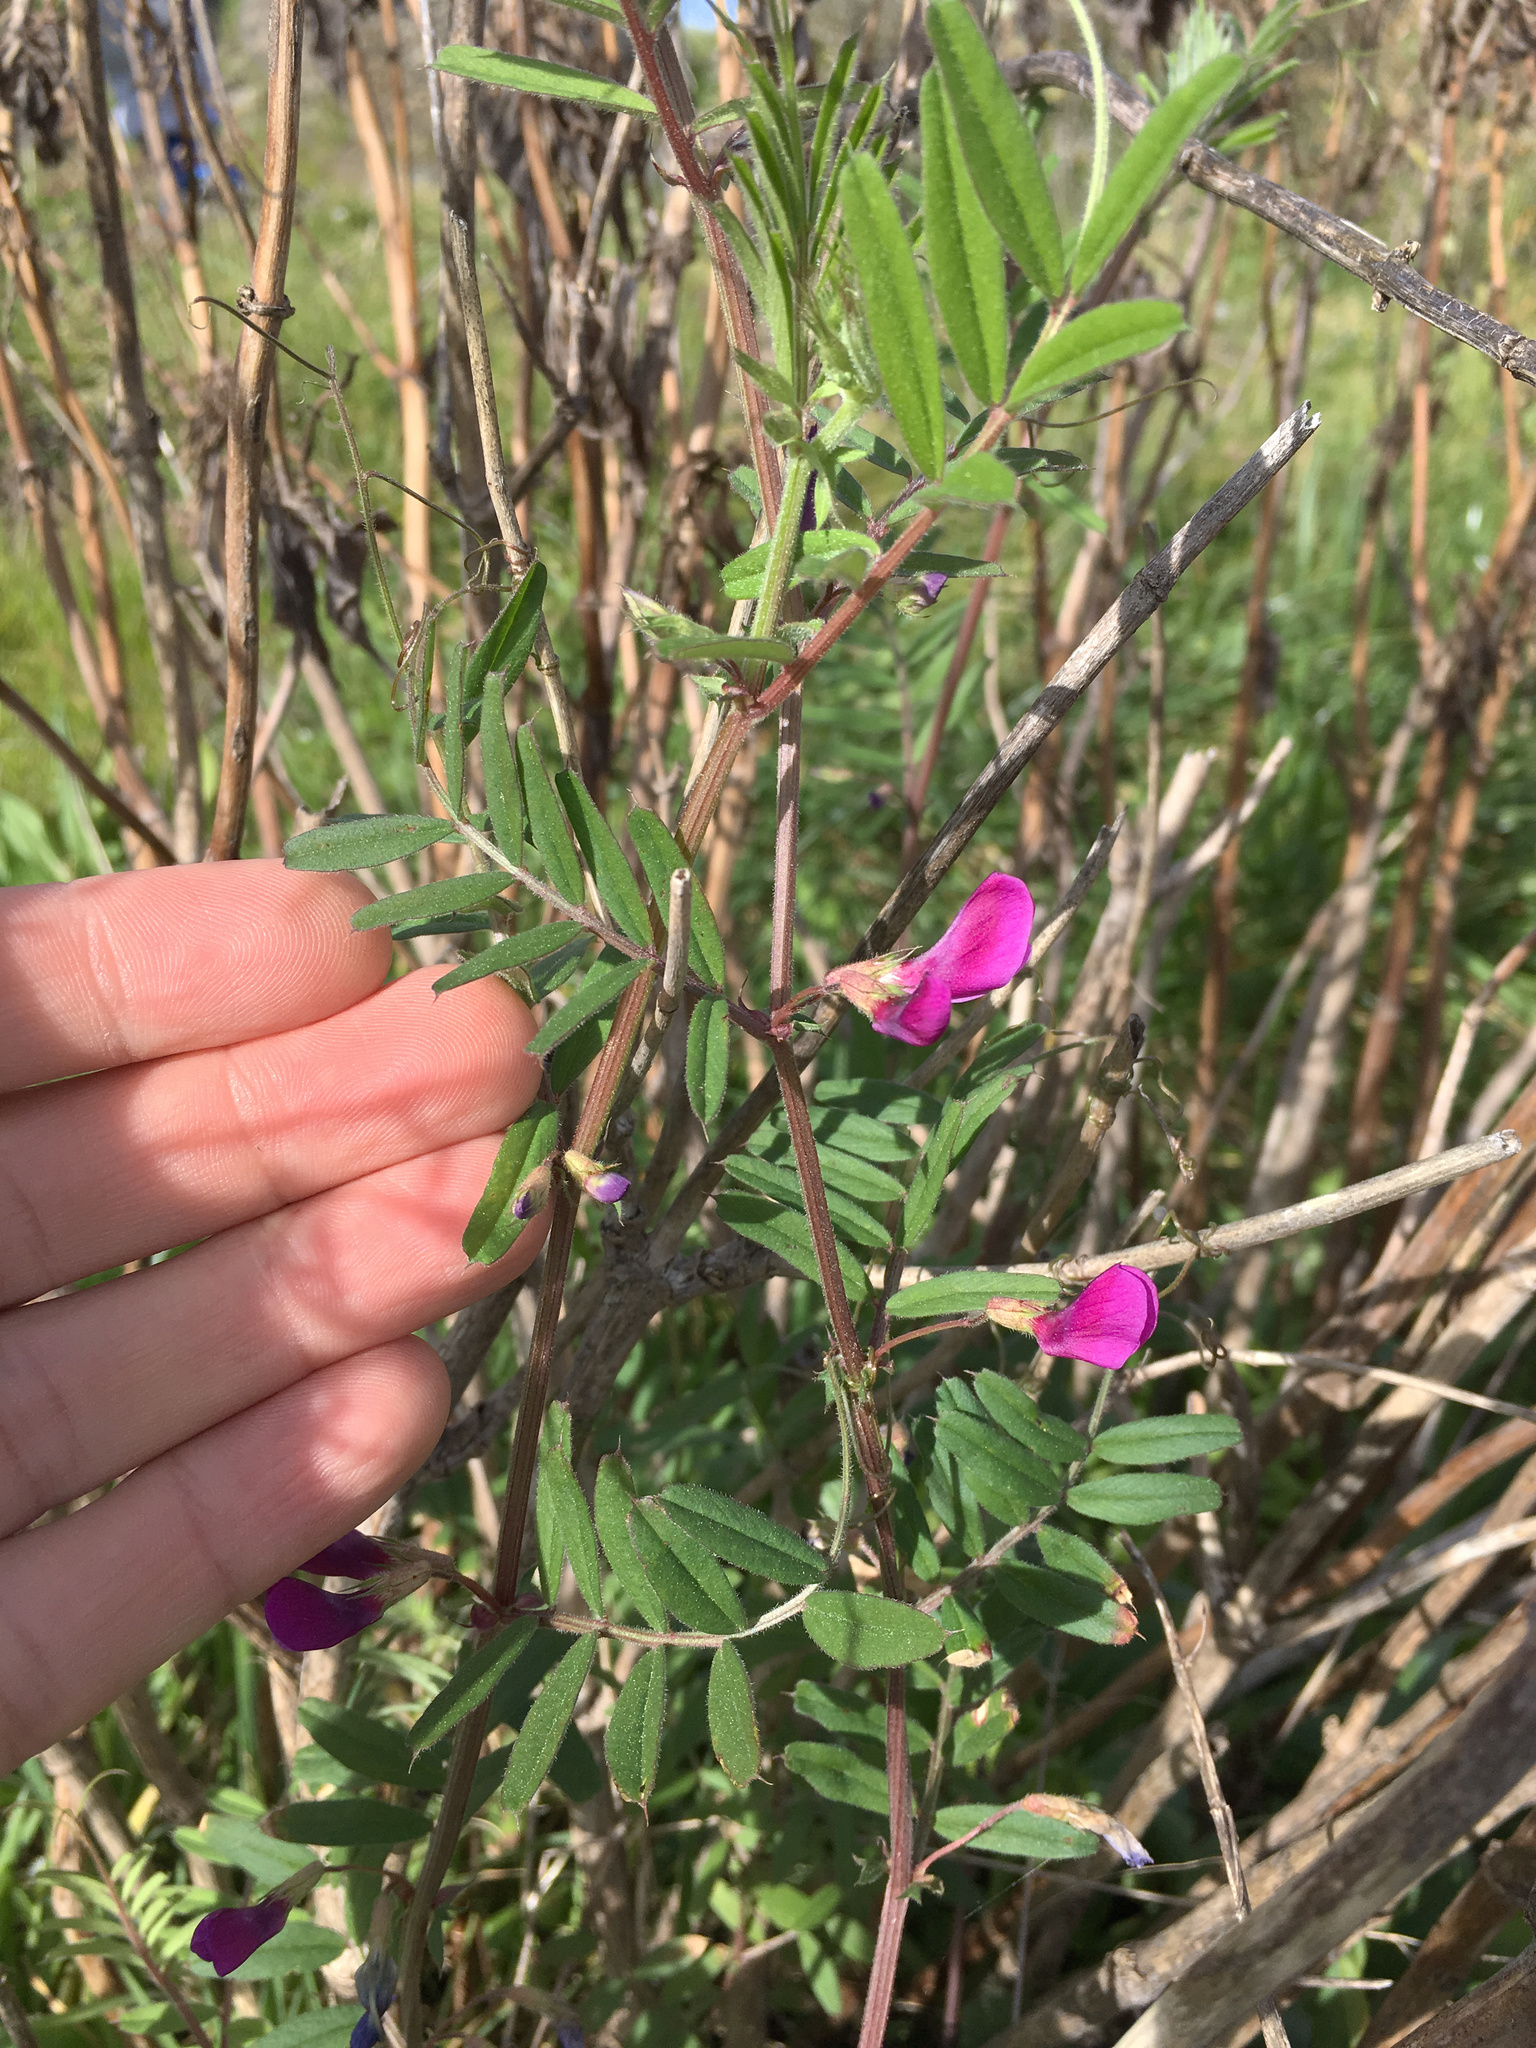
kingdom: Plantae
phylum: Tracheophyta
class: Magnoliopsida
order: Fabales
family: Fabaceae
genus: Vicia
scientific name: Vicia sativa
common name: Garden vetch
